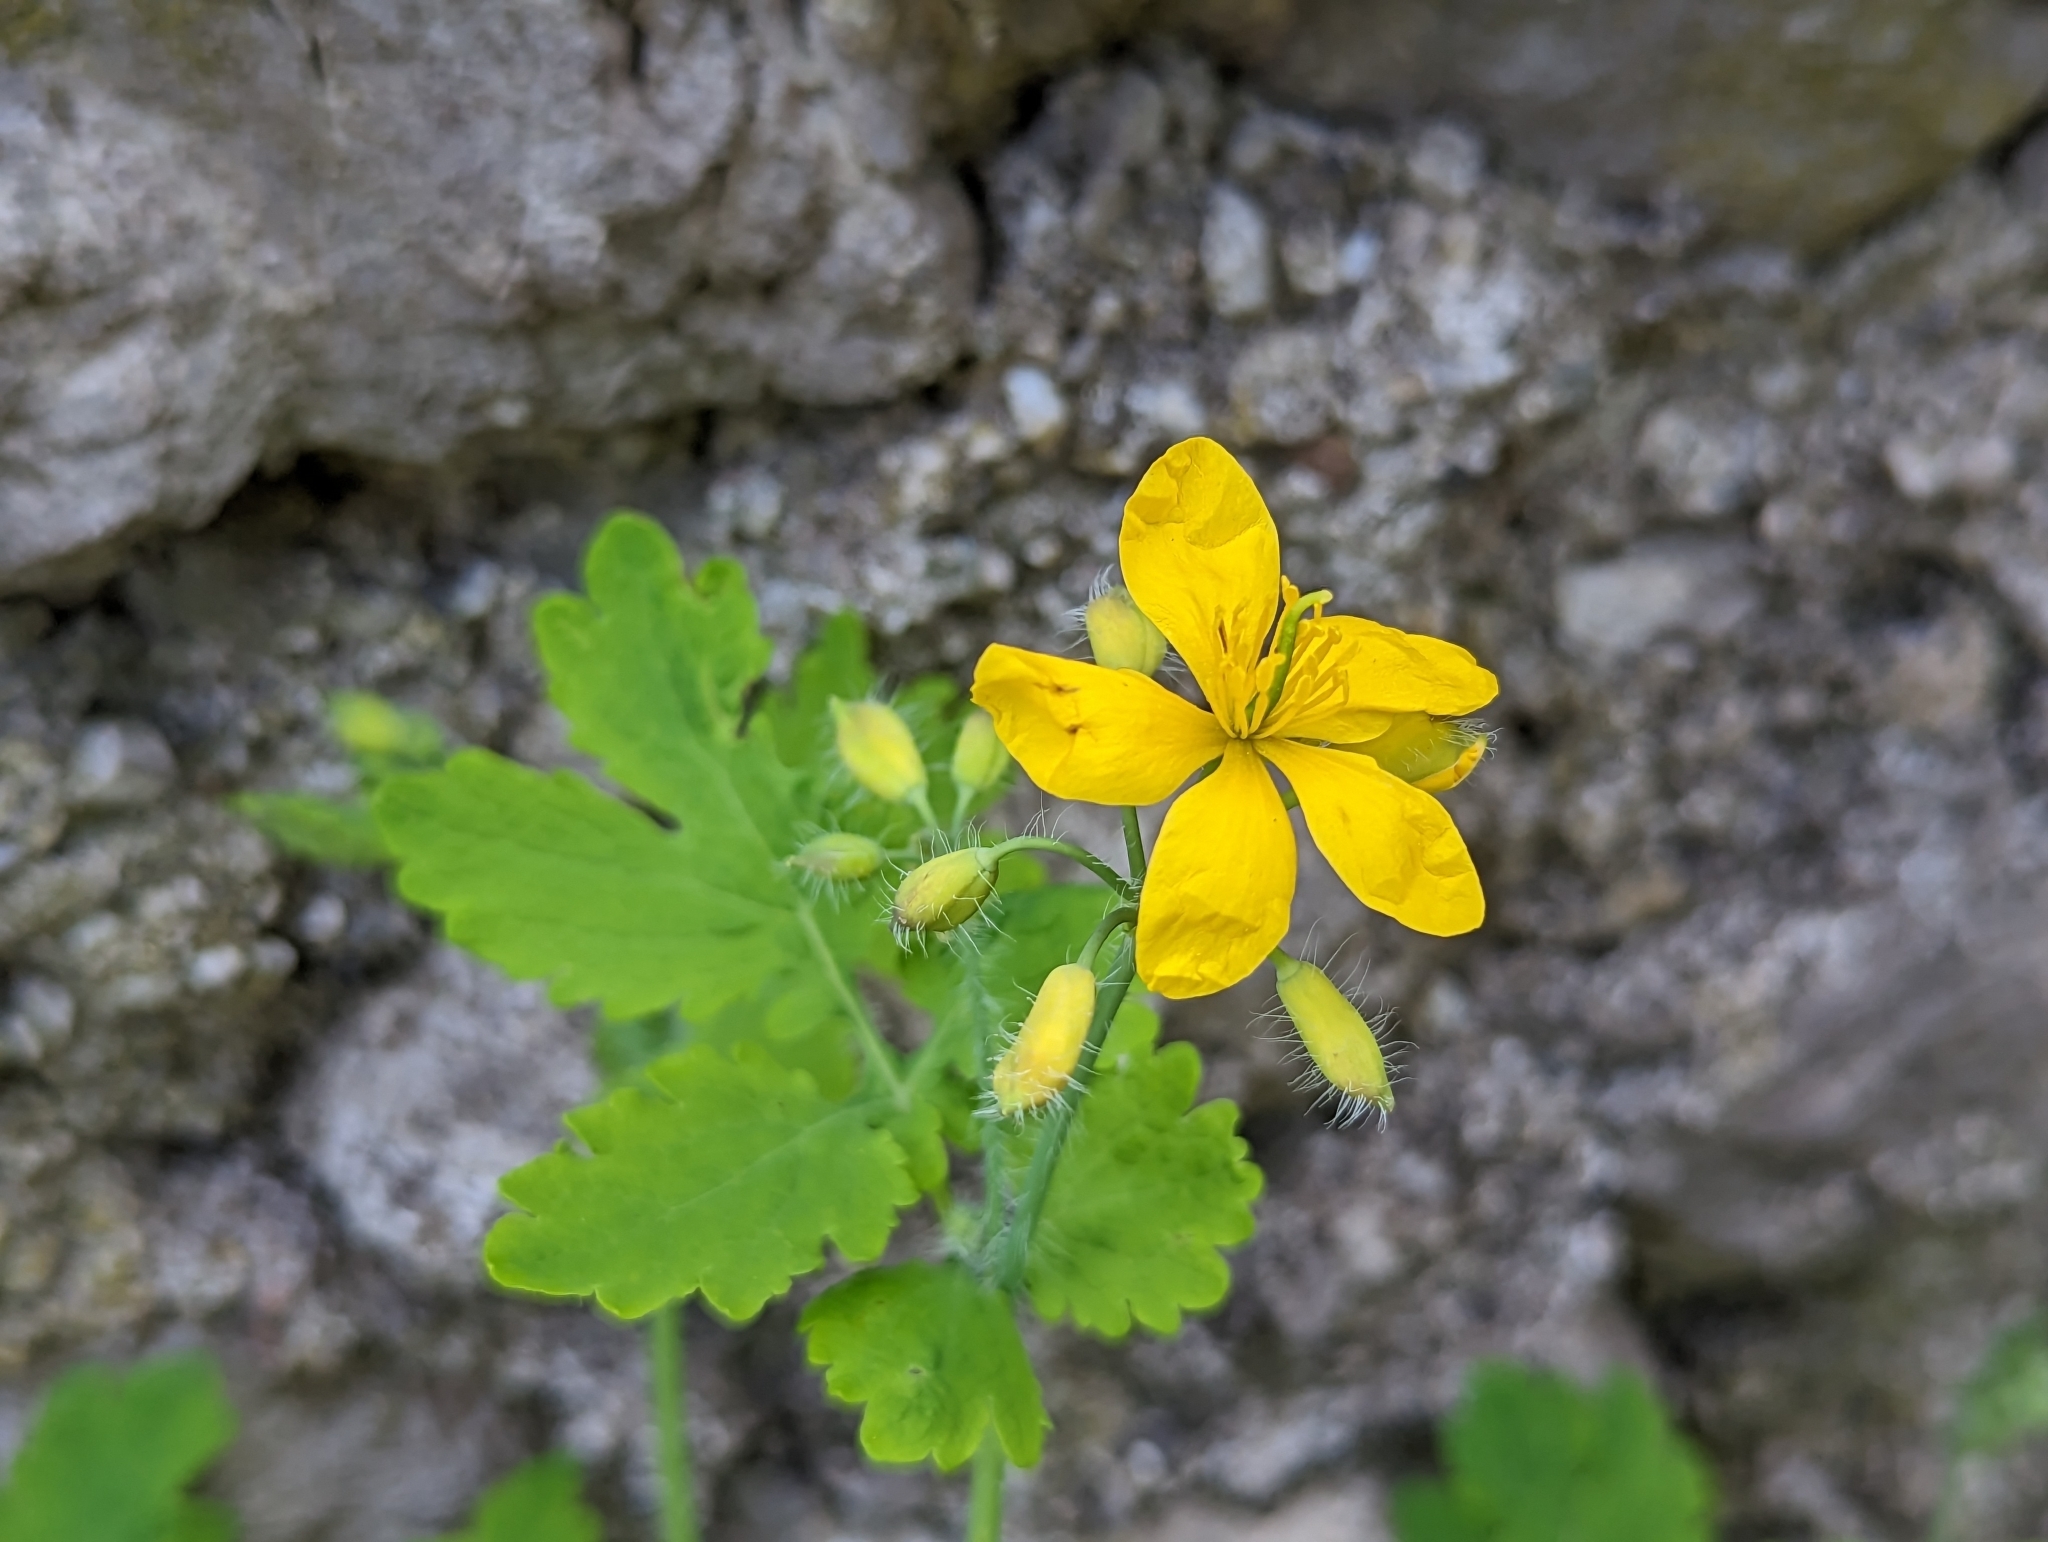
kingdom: Plantae
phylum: Tracheophyta
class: Magnoliopsida
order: Ranunculales
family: Papaveraceae
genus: Chelidonium
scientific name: Chelidonium majus
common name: Greater celandine
